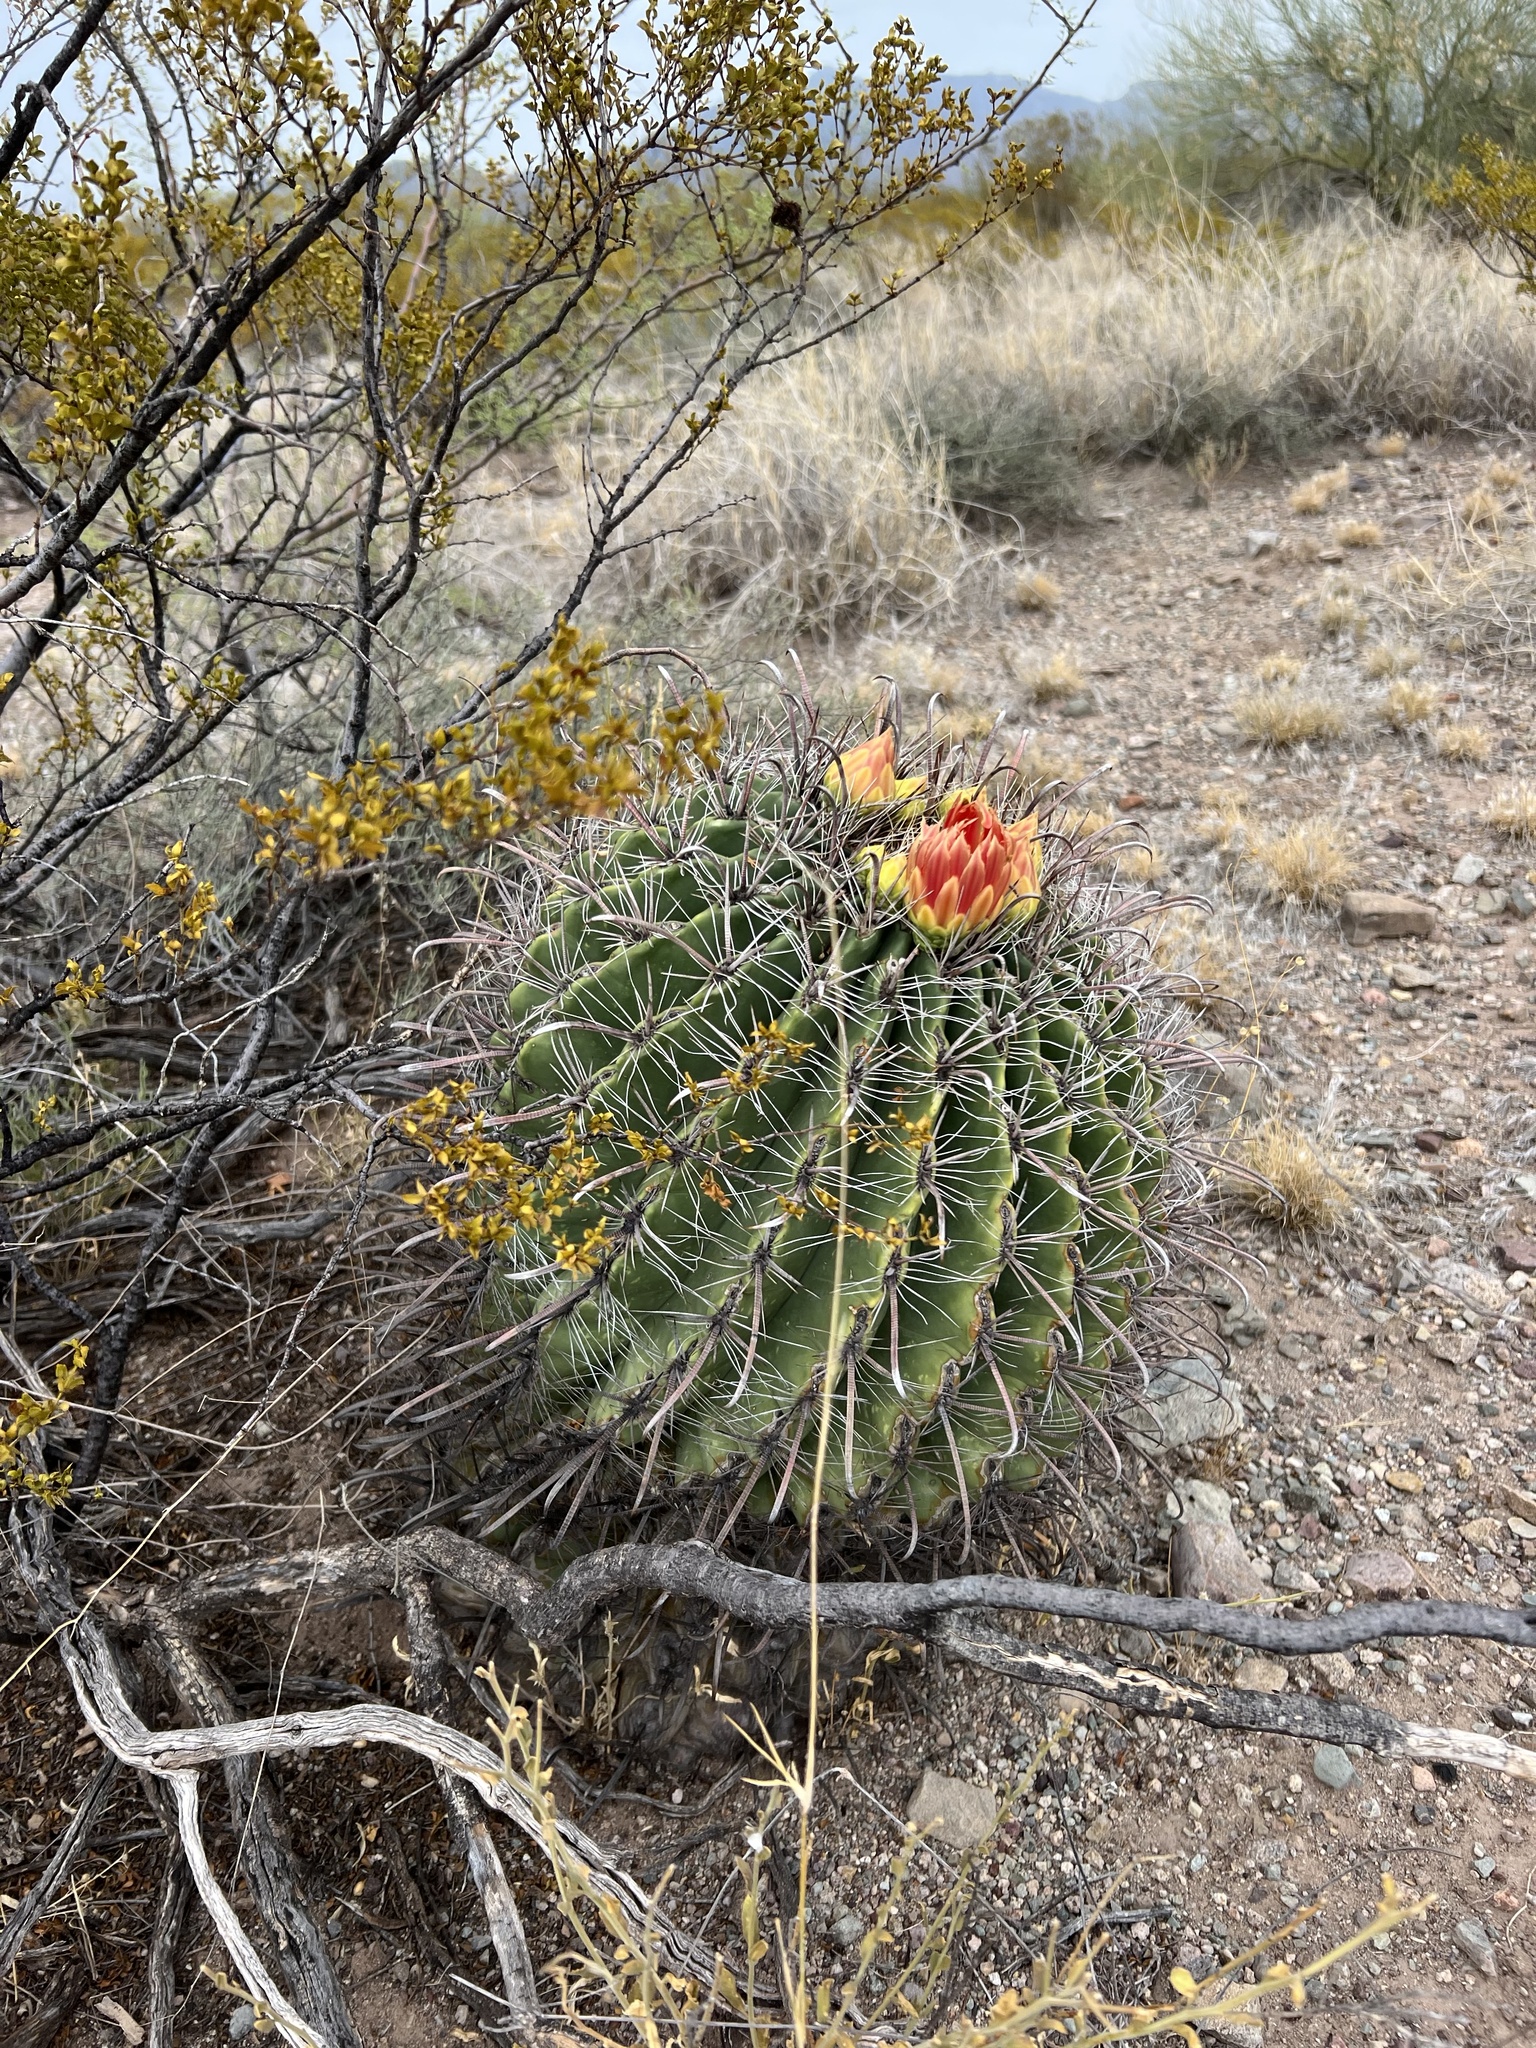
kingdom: Plantae
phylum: Tracheophyta
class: Magnoliopsida
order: Caryophyllales
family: Cactaceae
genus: Ferocactus
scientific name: Ferocactus wislizeni
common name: Candy barrel cactus
